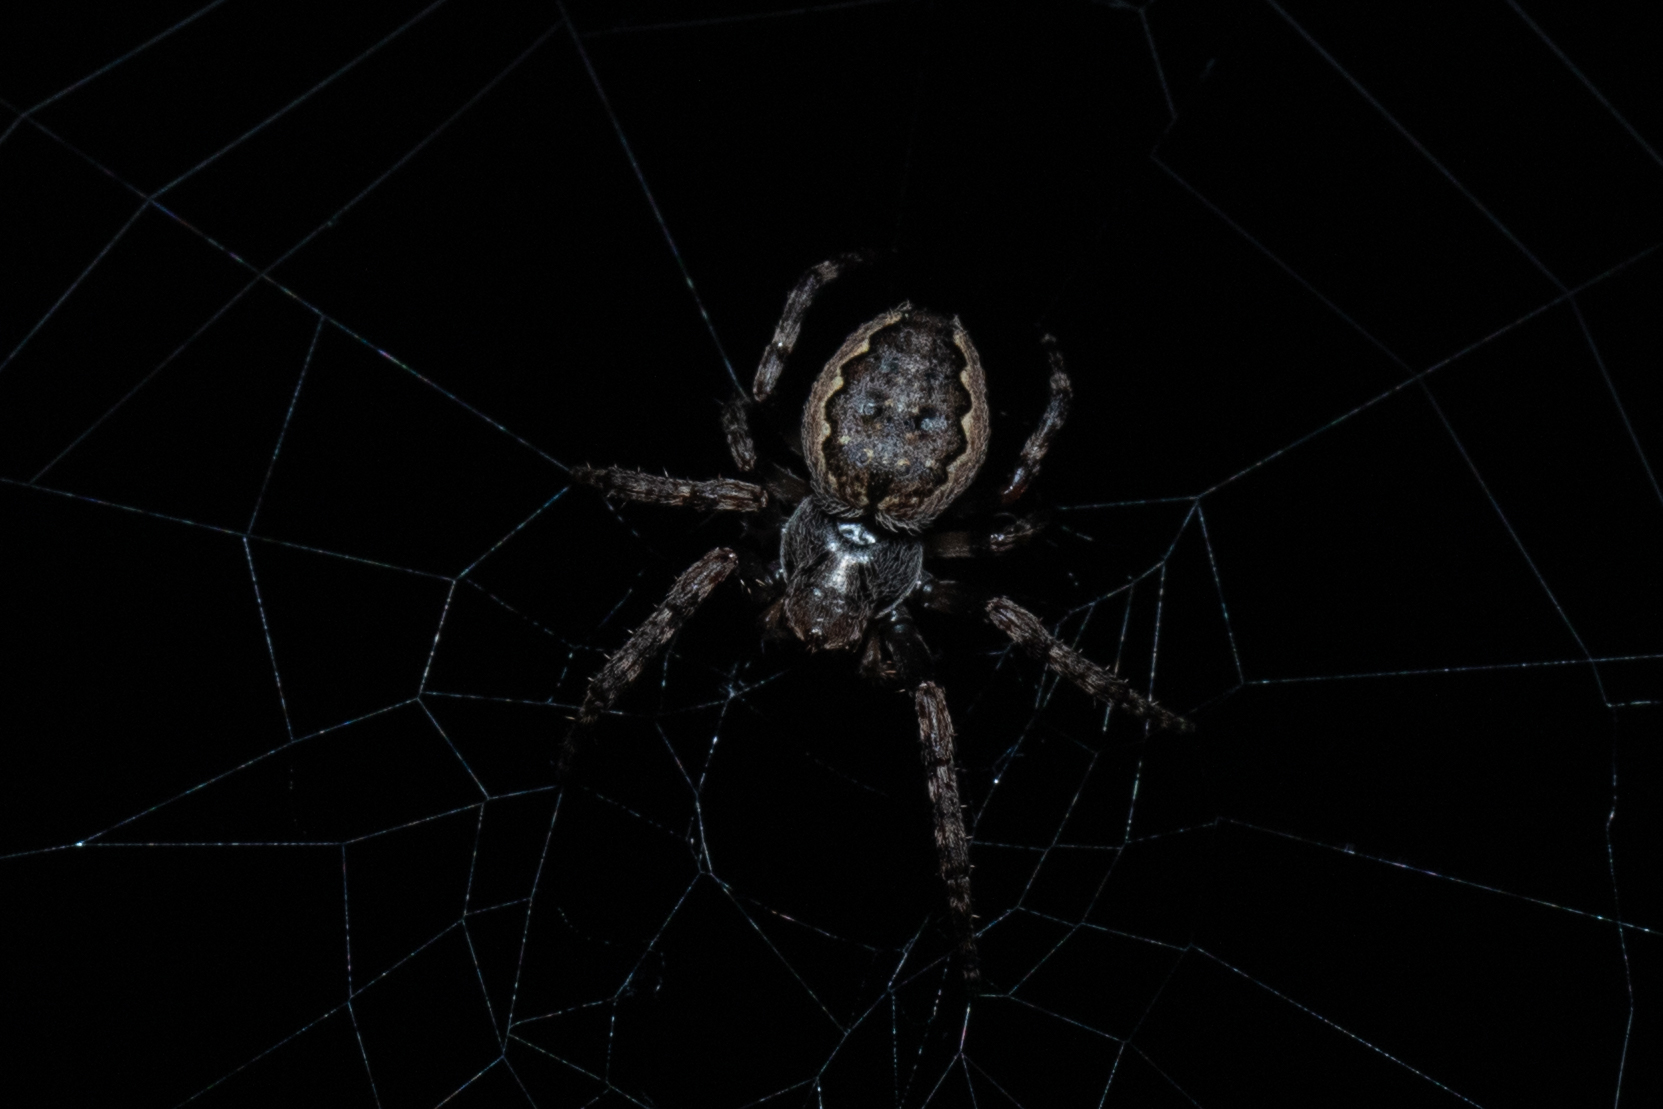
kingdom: Animalia
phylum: Arthropoda
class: Arachnida
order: Araneae
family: Araneidae
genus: Nuctenea
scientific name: Nuctenea umbratica
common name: Toad spider
